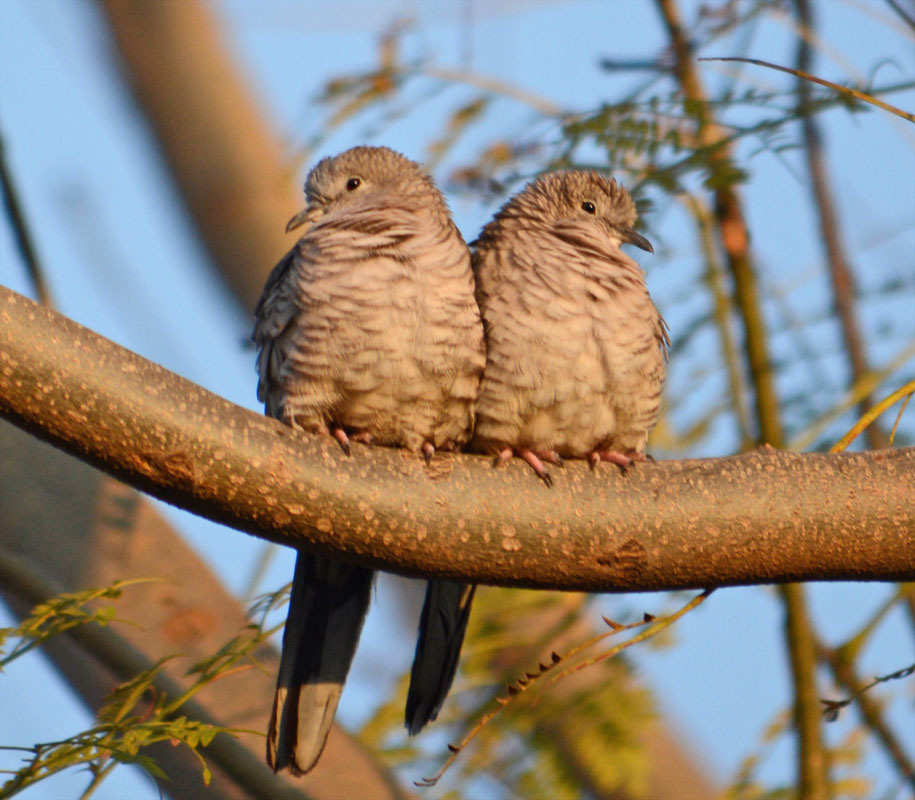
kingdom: Animalia
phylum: Chordata
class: Aves
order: Columbiformes
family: Columbidae
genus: Columbina
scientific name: Columbina inca
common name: Inca dove
